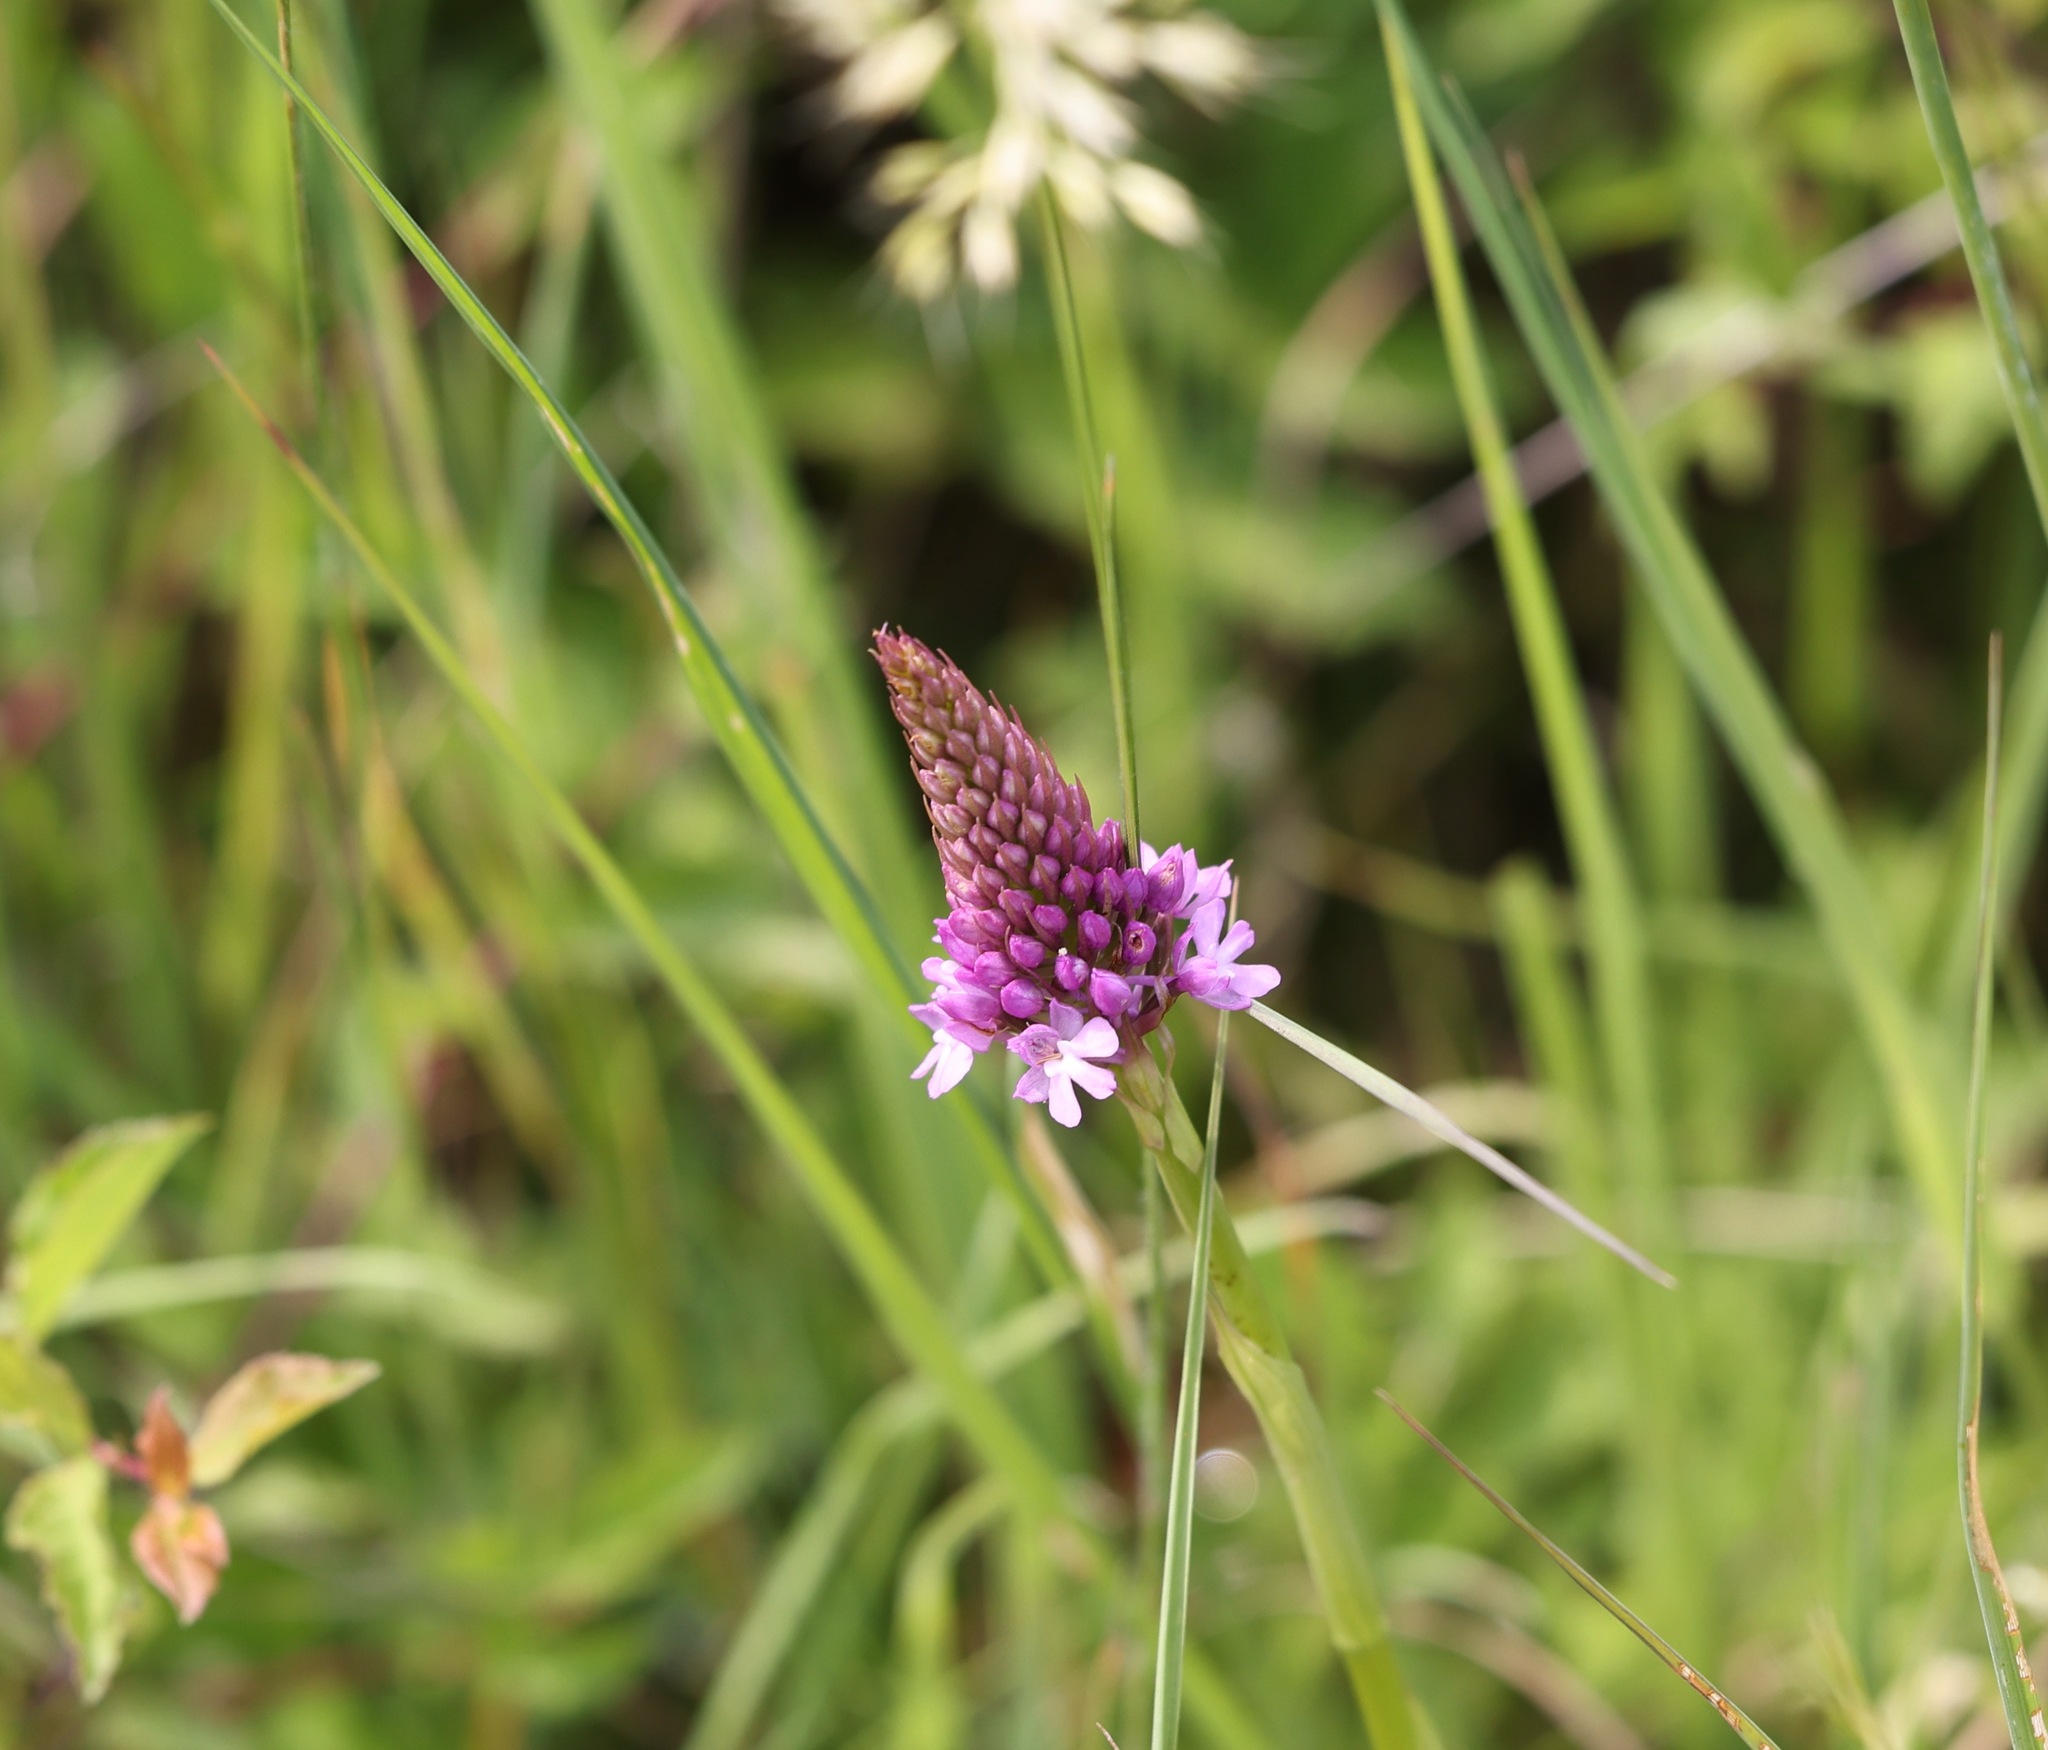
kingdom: Plantae
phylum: Tracheophyta
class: Liliopsida
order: Asparagales
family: Orchidaceae
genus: Anacamptis
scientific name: Anacamptis pyramidalis
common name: Pyramidal orchid
